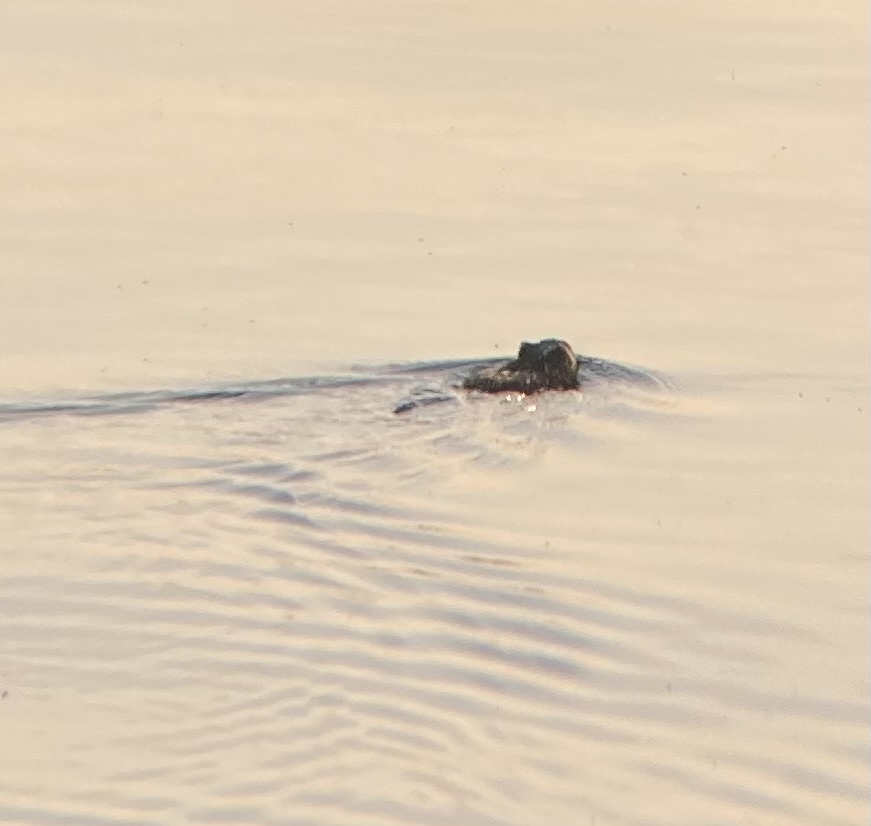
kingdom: Animalia
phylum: Chordata
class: Mammalia
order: Rodentia
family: Cricetidae
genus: Ondatra
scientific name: Ondatra zibethicus
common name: Muskrat
